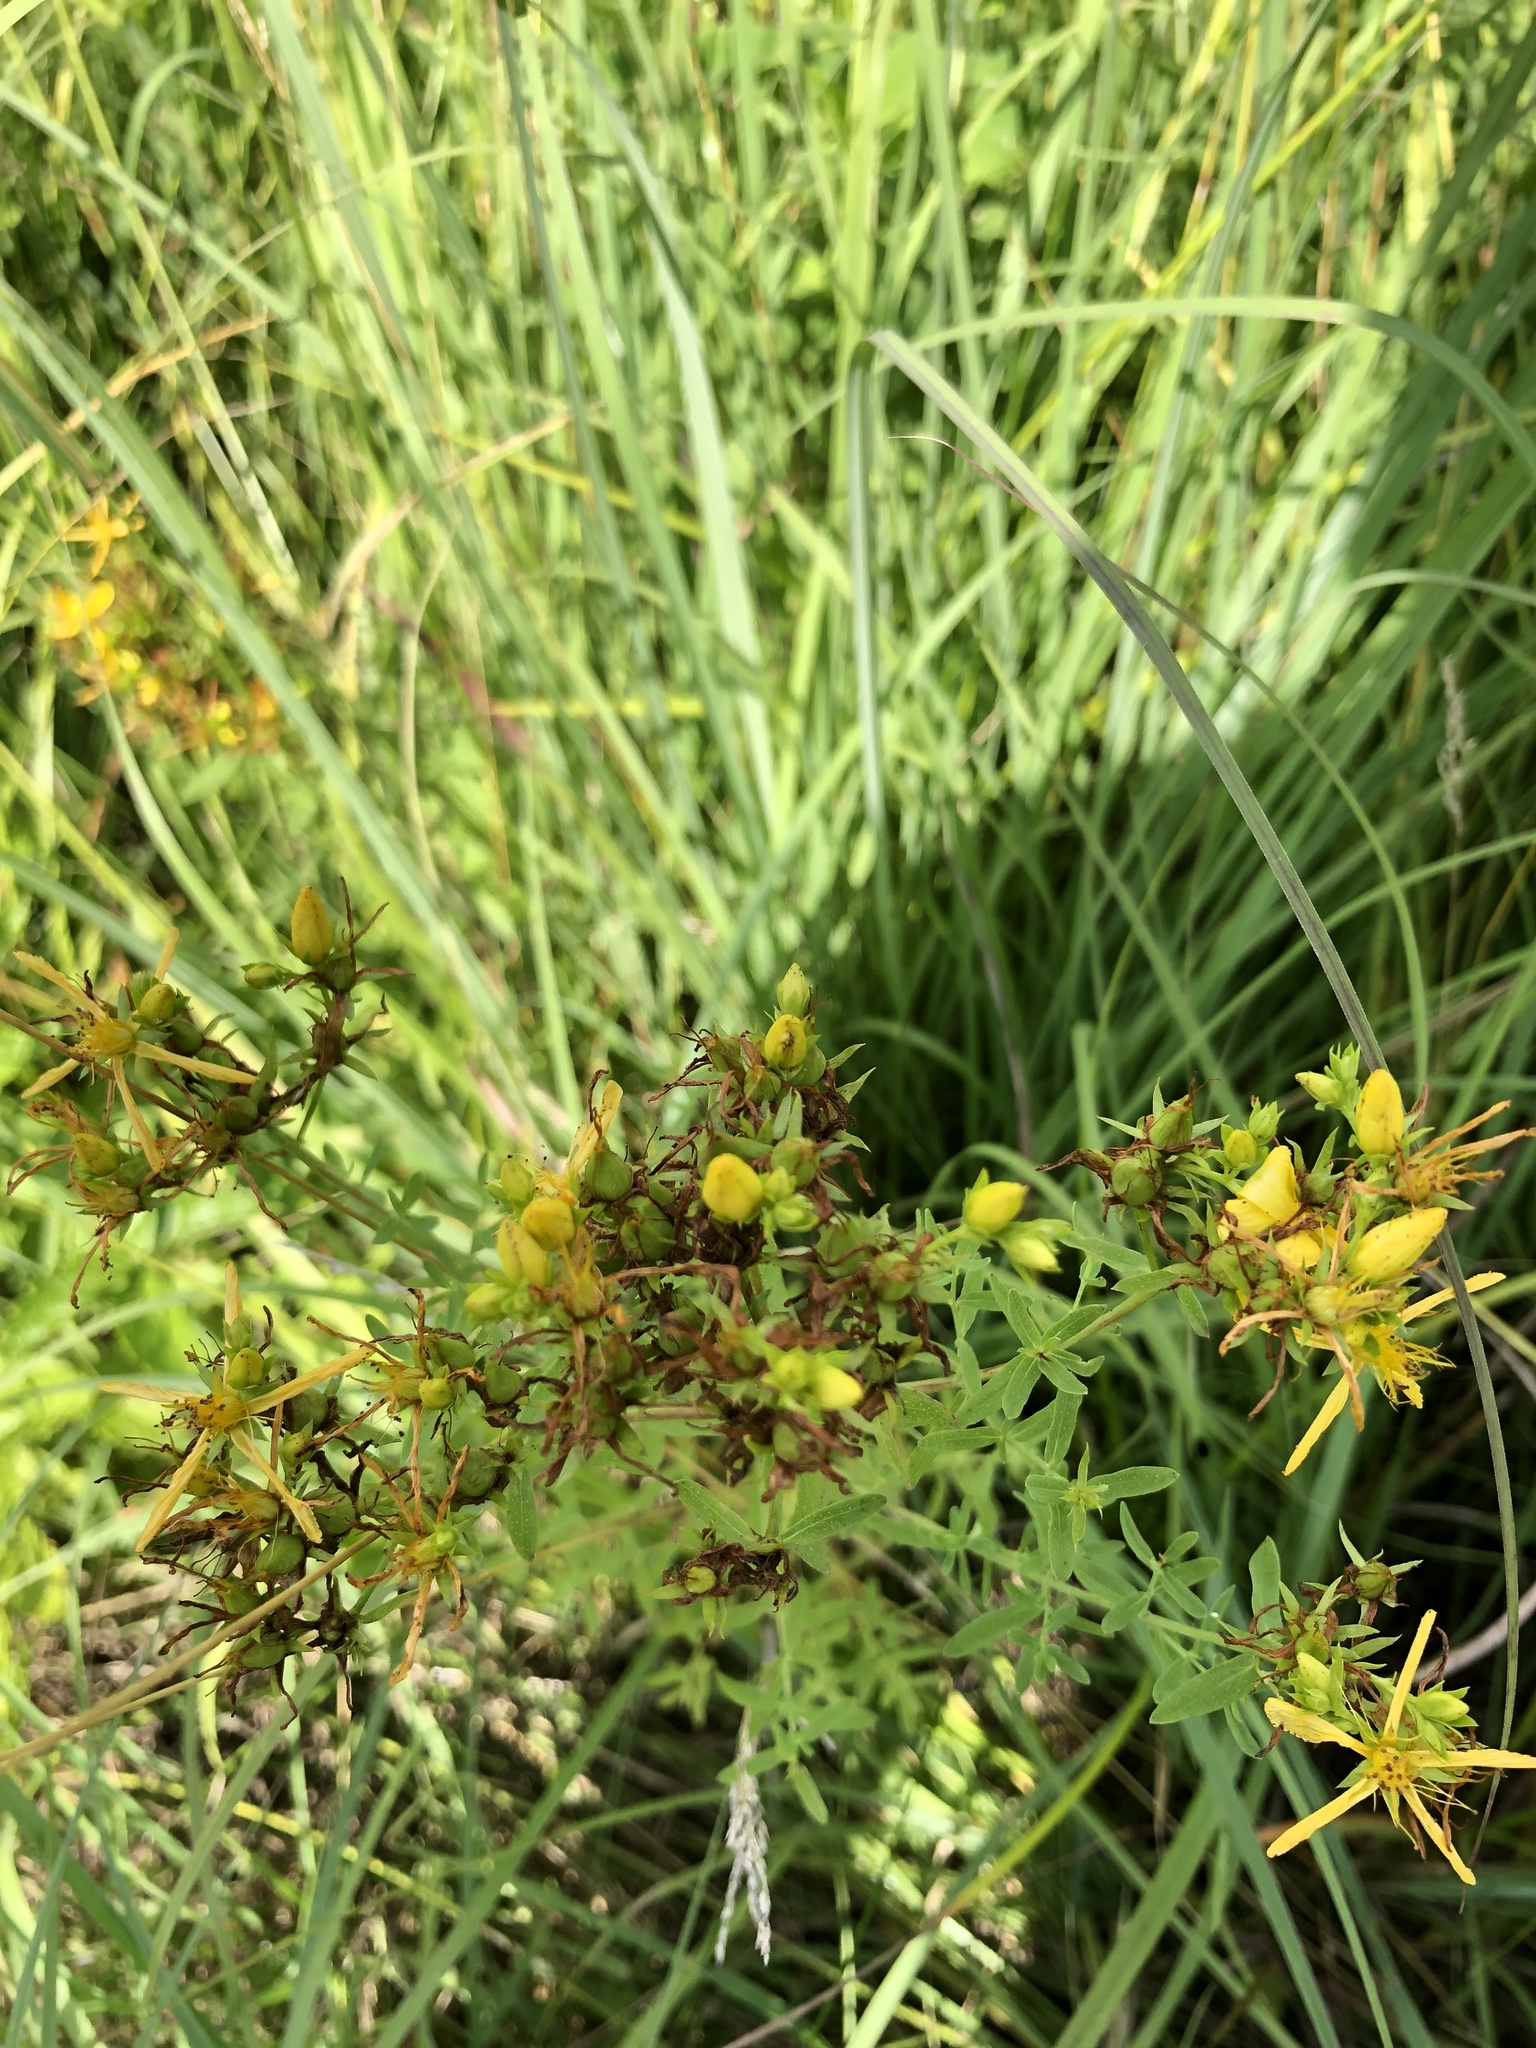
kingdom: Plantae
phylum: Tracheophyta
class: Magnoliopsida
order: Malpighiales
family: Hypericaceae
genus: Hypericum
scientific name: Hypericum perforatum
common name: Common st. johnswort
